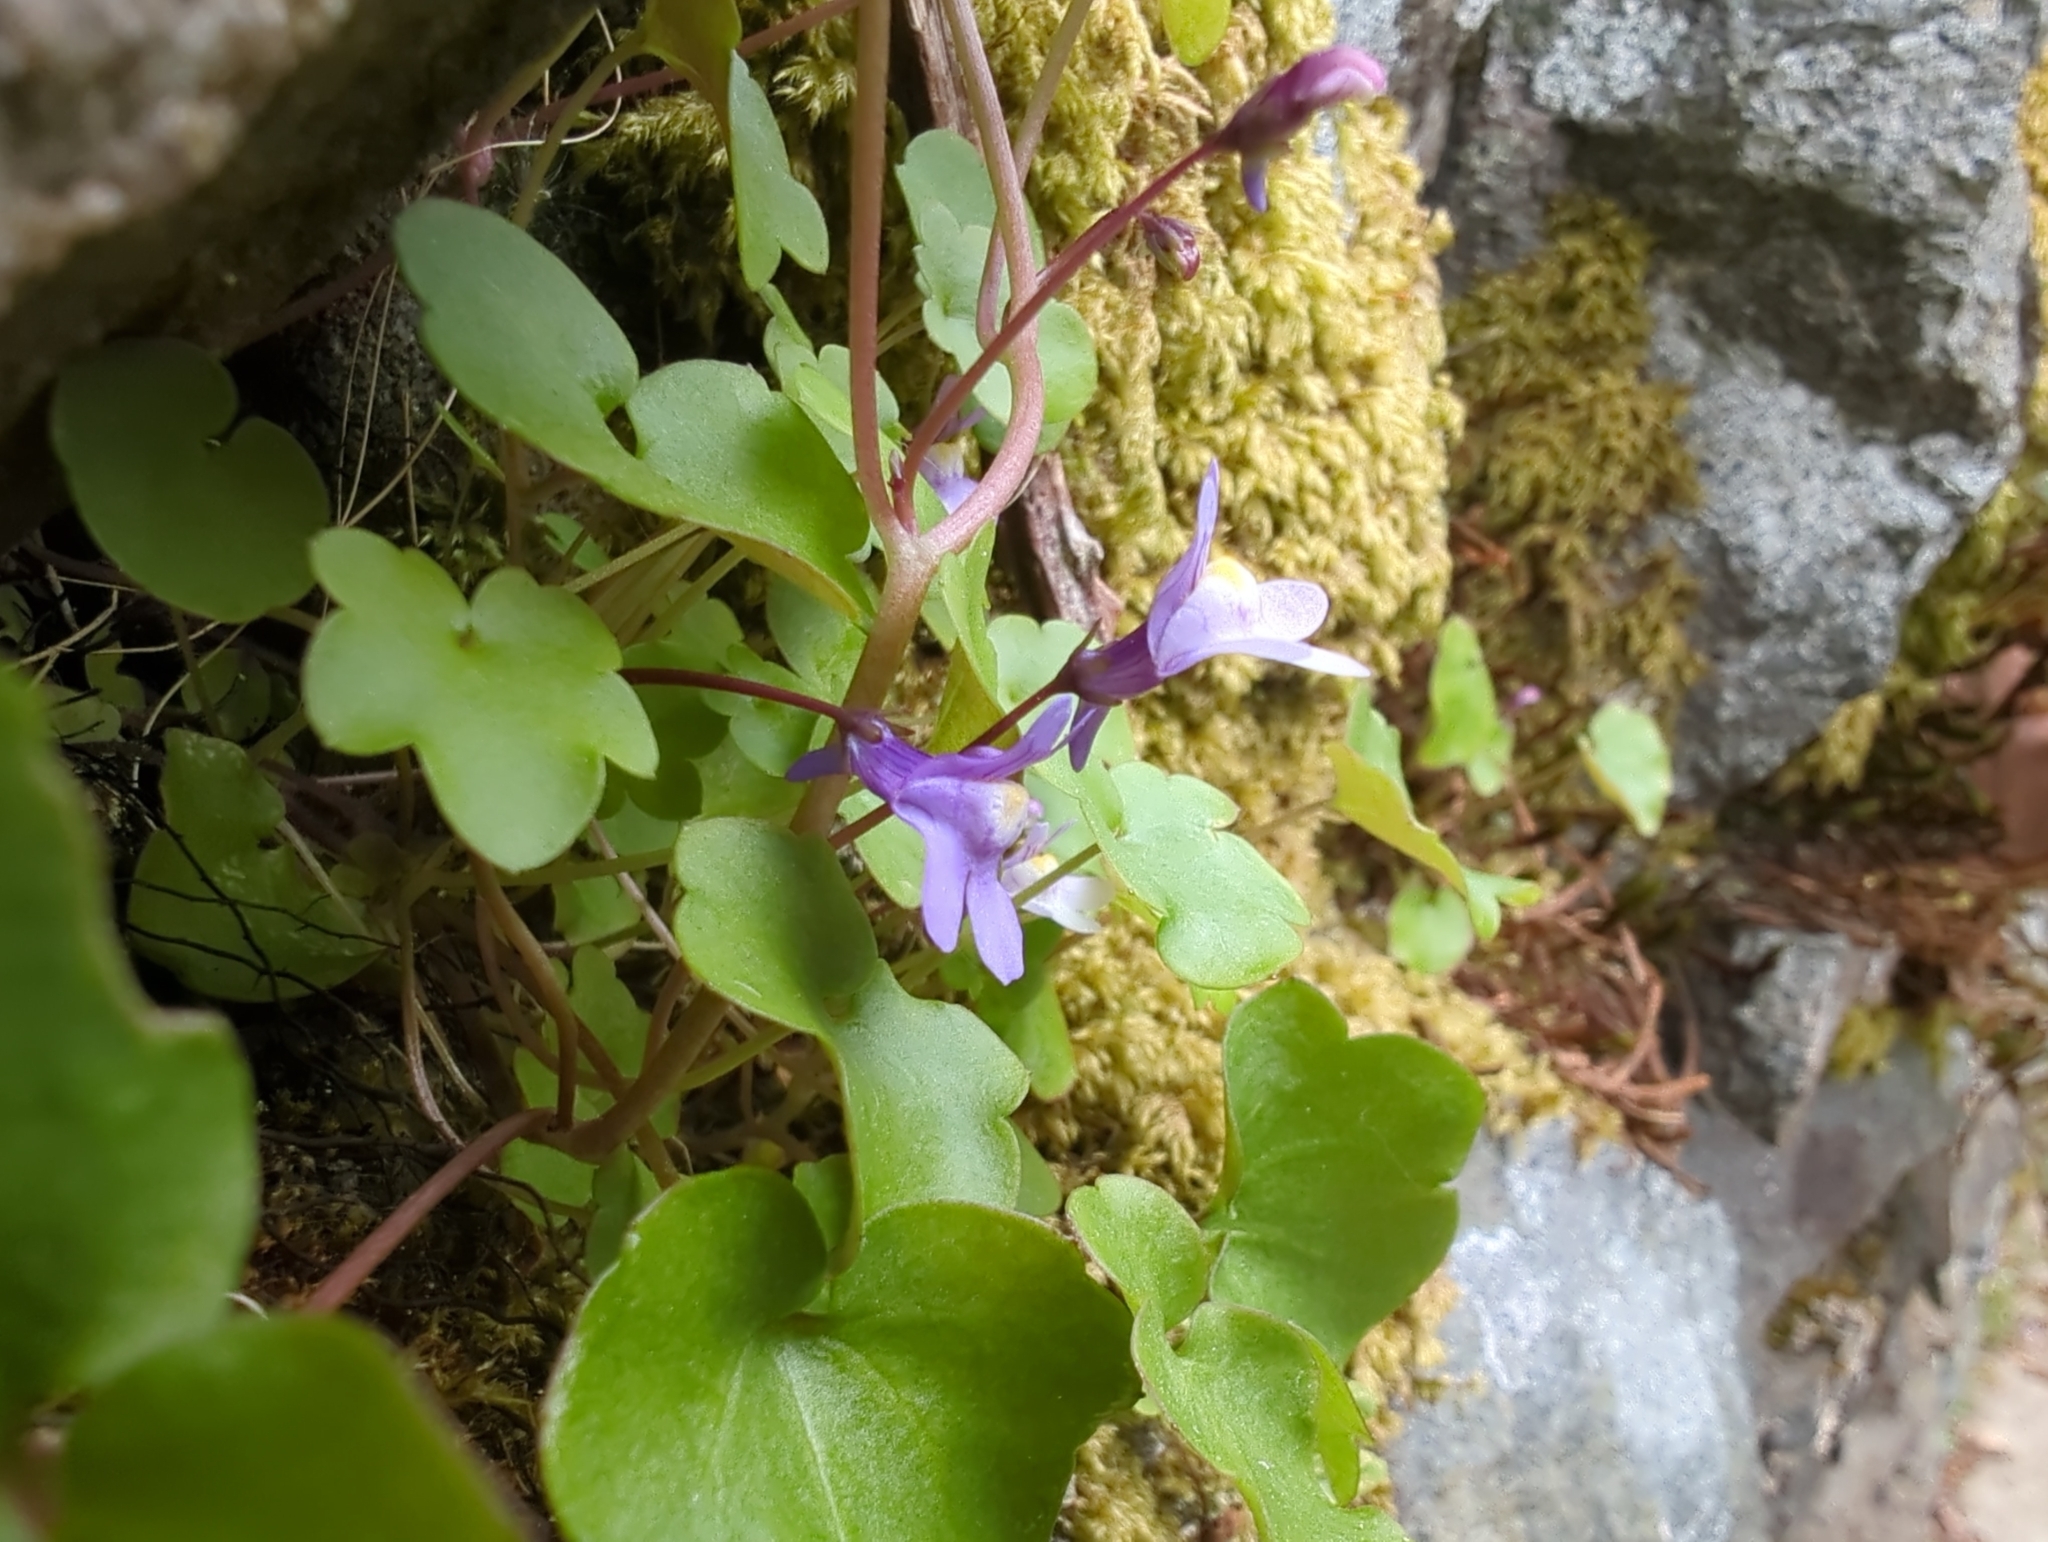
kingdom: Plantae
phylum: Tracheophyta
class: Magnoliopsida
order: Lamiales
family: Plantaginaceae
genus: Cymbalaria
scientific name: Cymbalaria muralis
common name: Ivy-leaved toadflax
